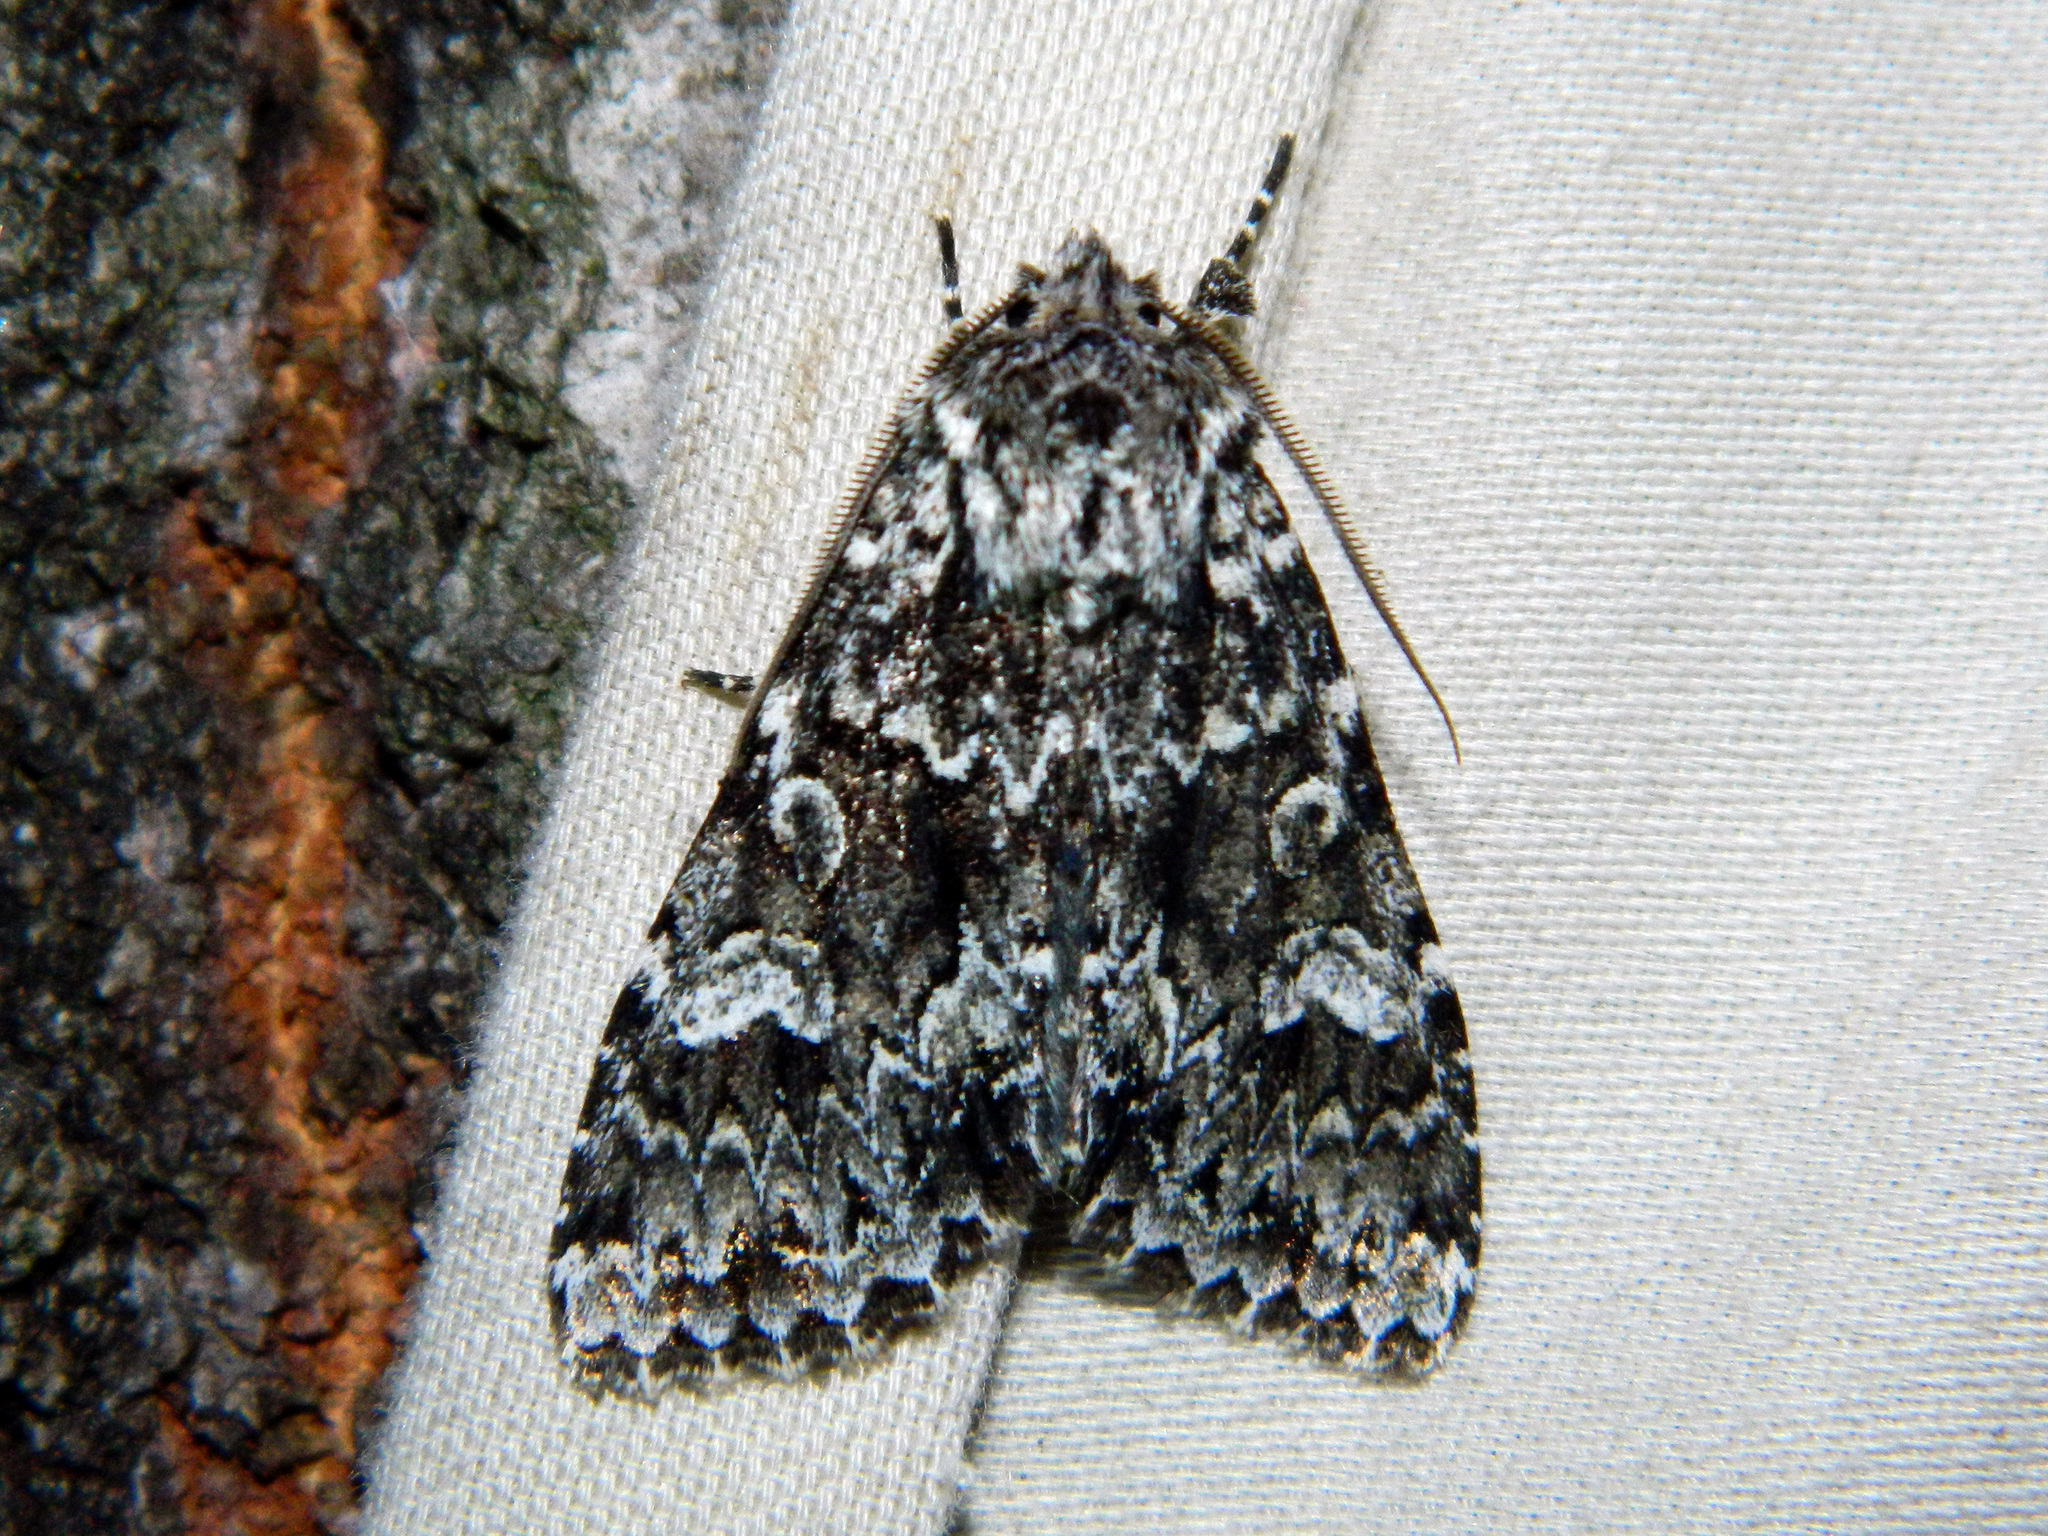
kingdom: Animalia
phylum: Arthropoda
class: Insecta
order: Lepidoptera
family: Noctuidae
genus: Platypolia
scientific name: Platypolia anceps
